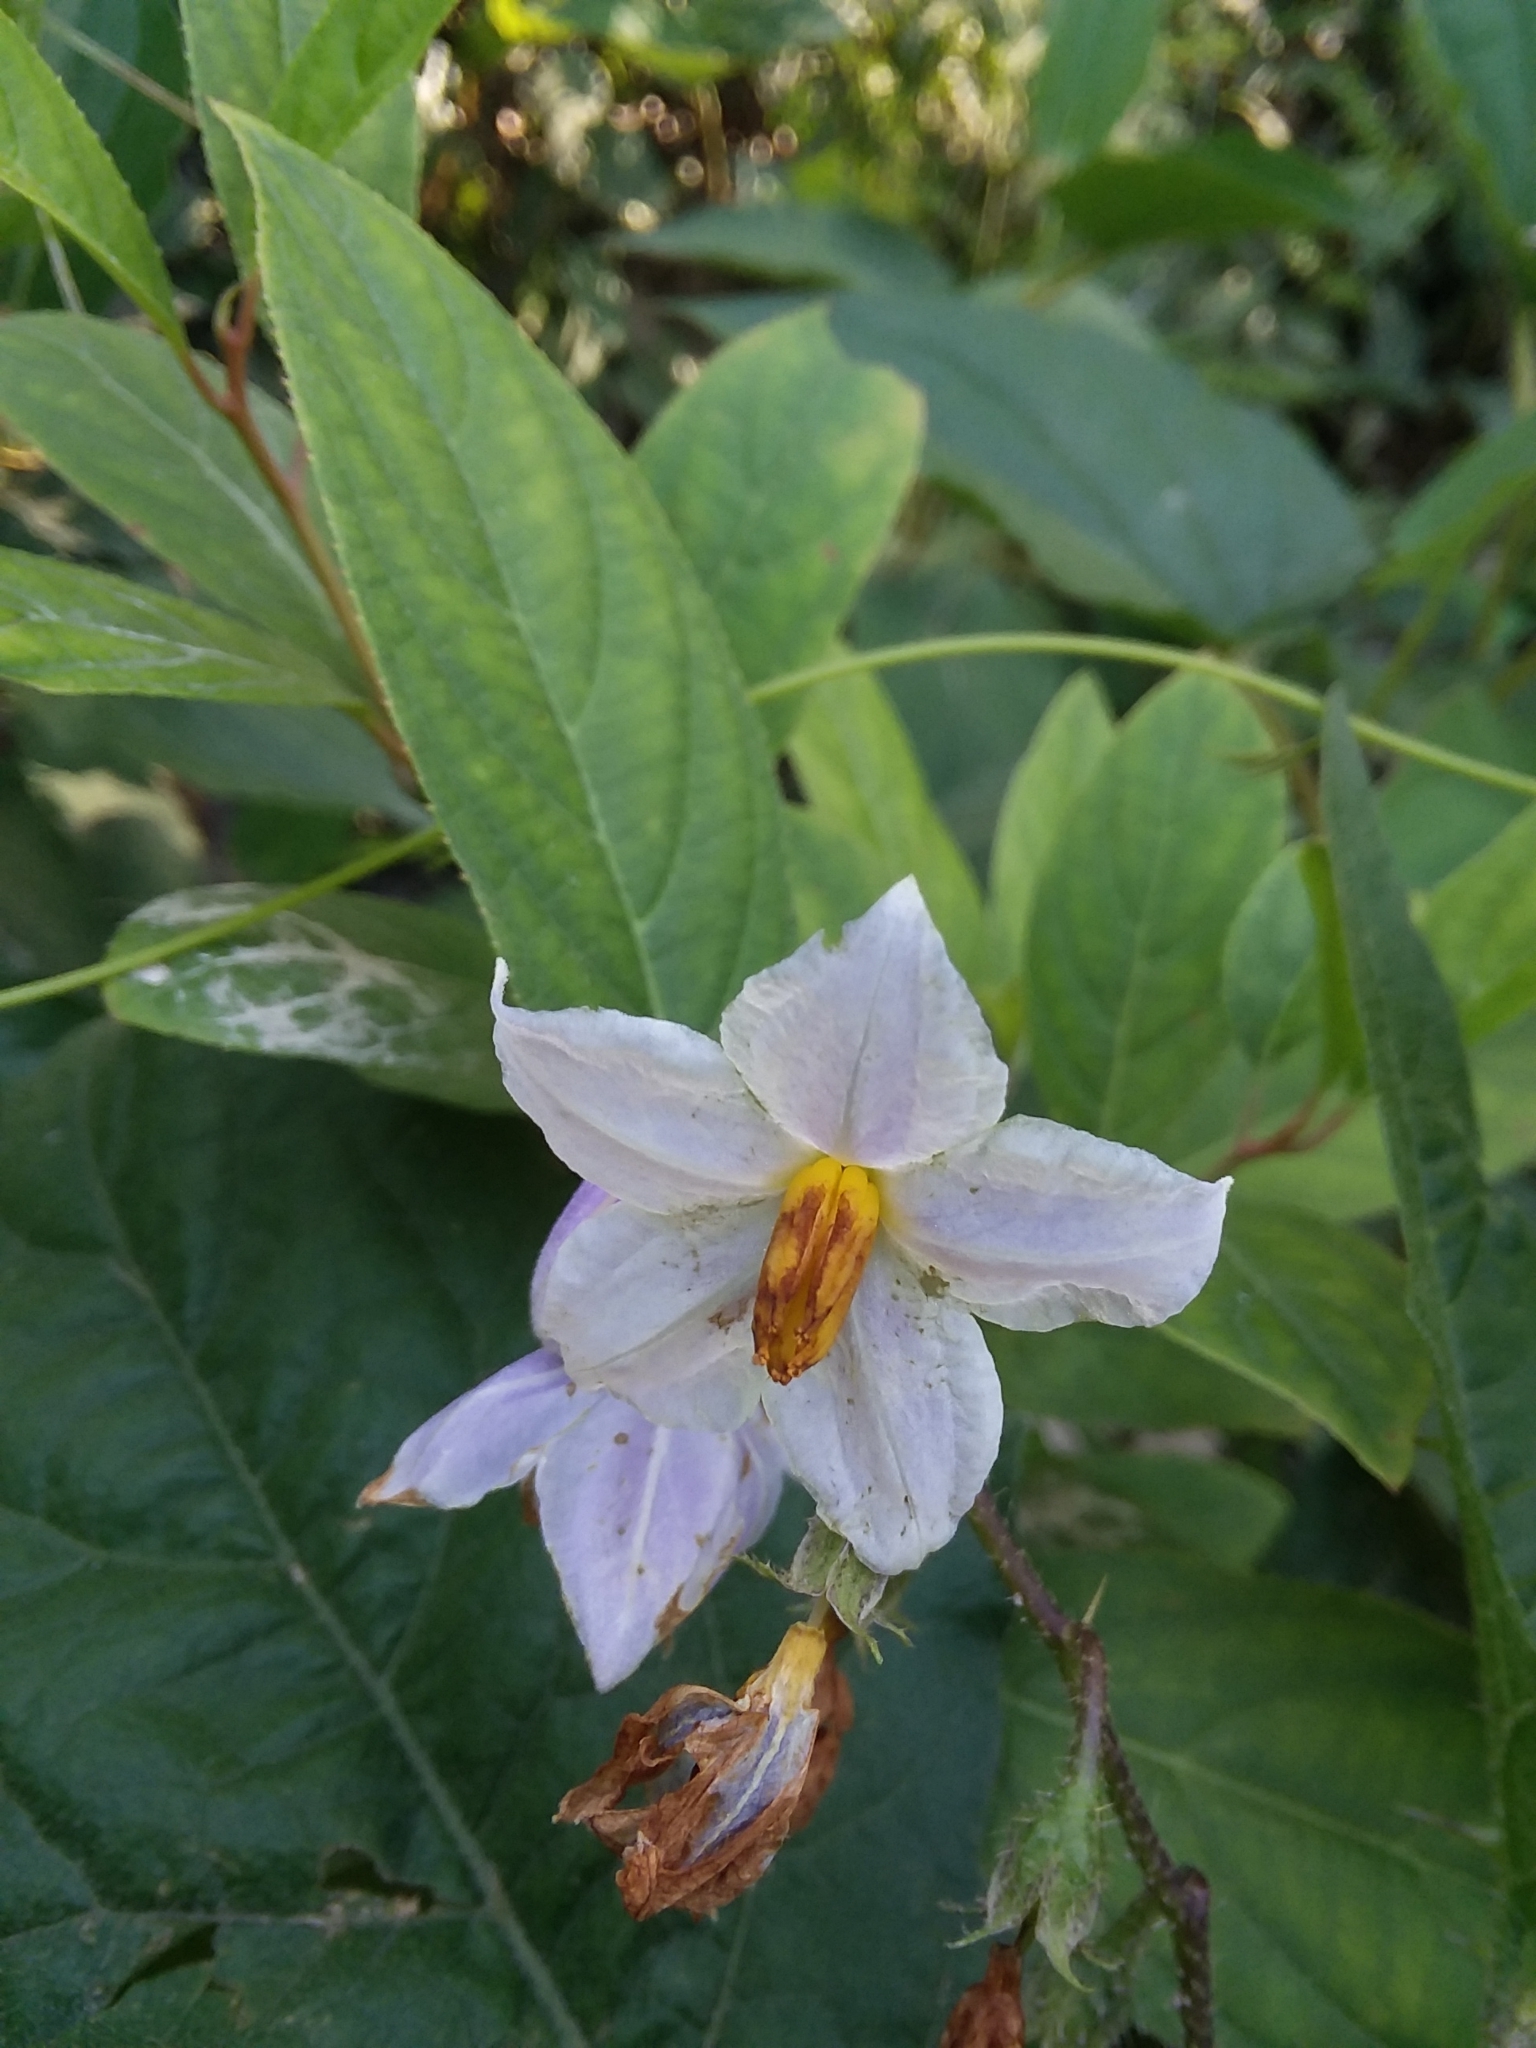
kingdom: Plantae
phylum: Tracheophyta
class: Magnoliopsida
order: Solanales
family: Solanaceae
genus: Solanum
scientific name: Solanum carolinense
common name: Horse-nettle
